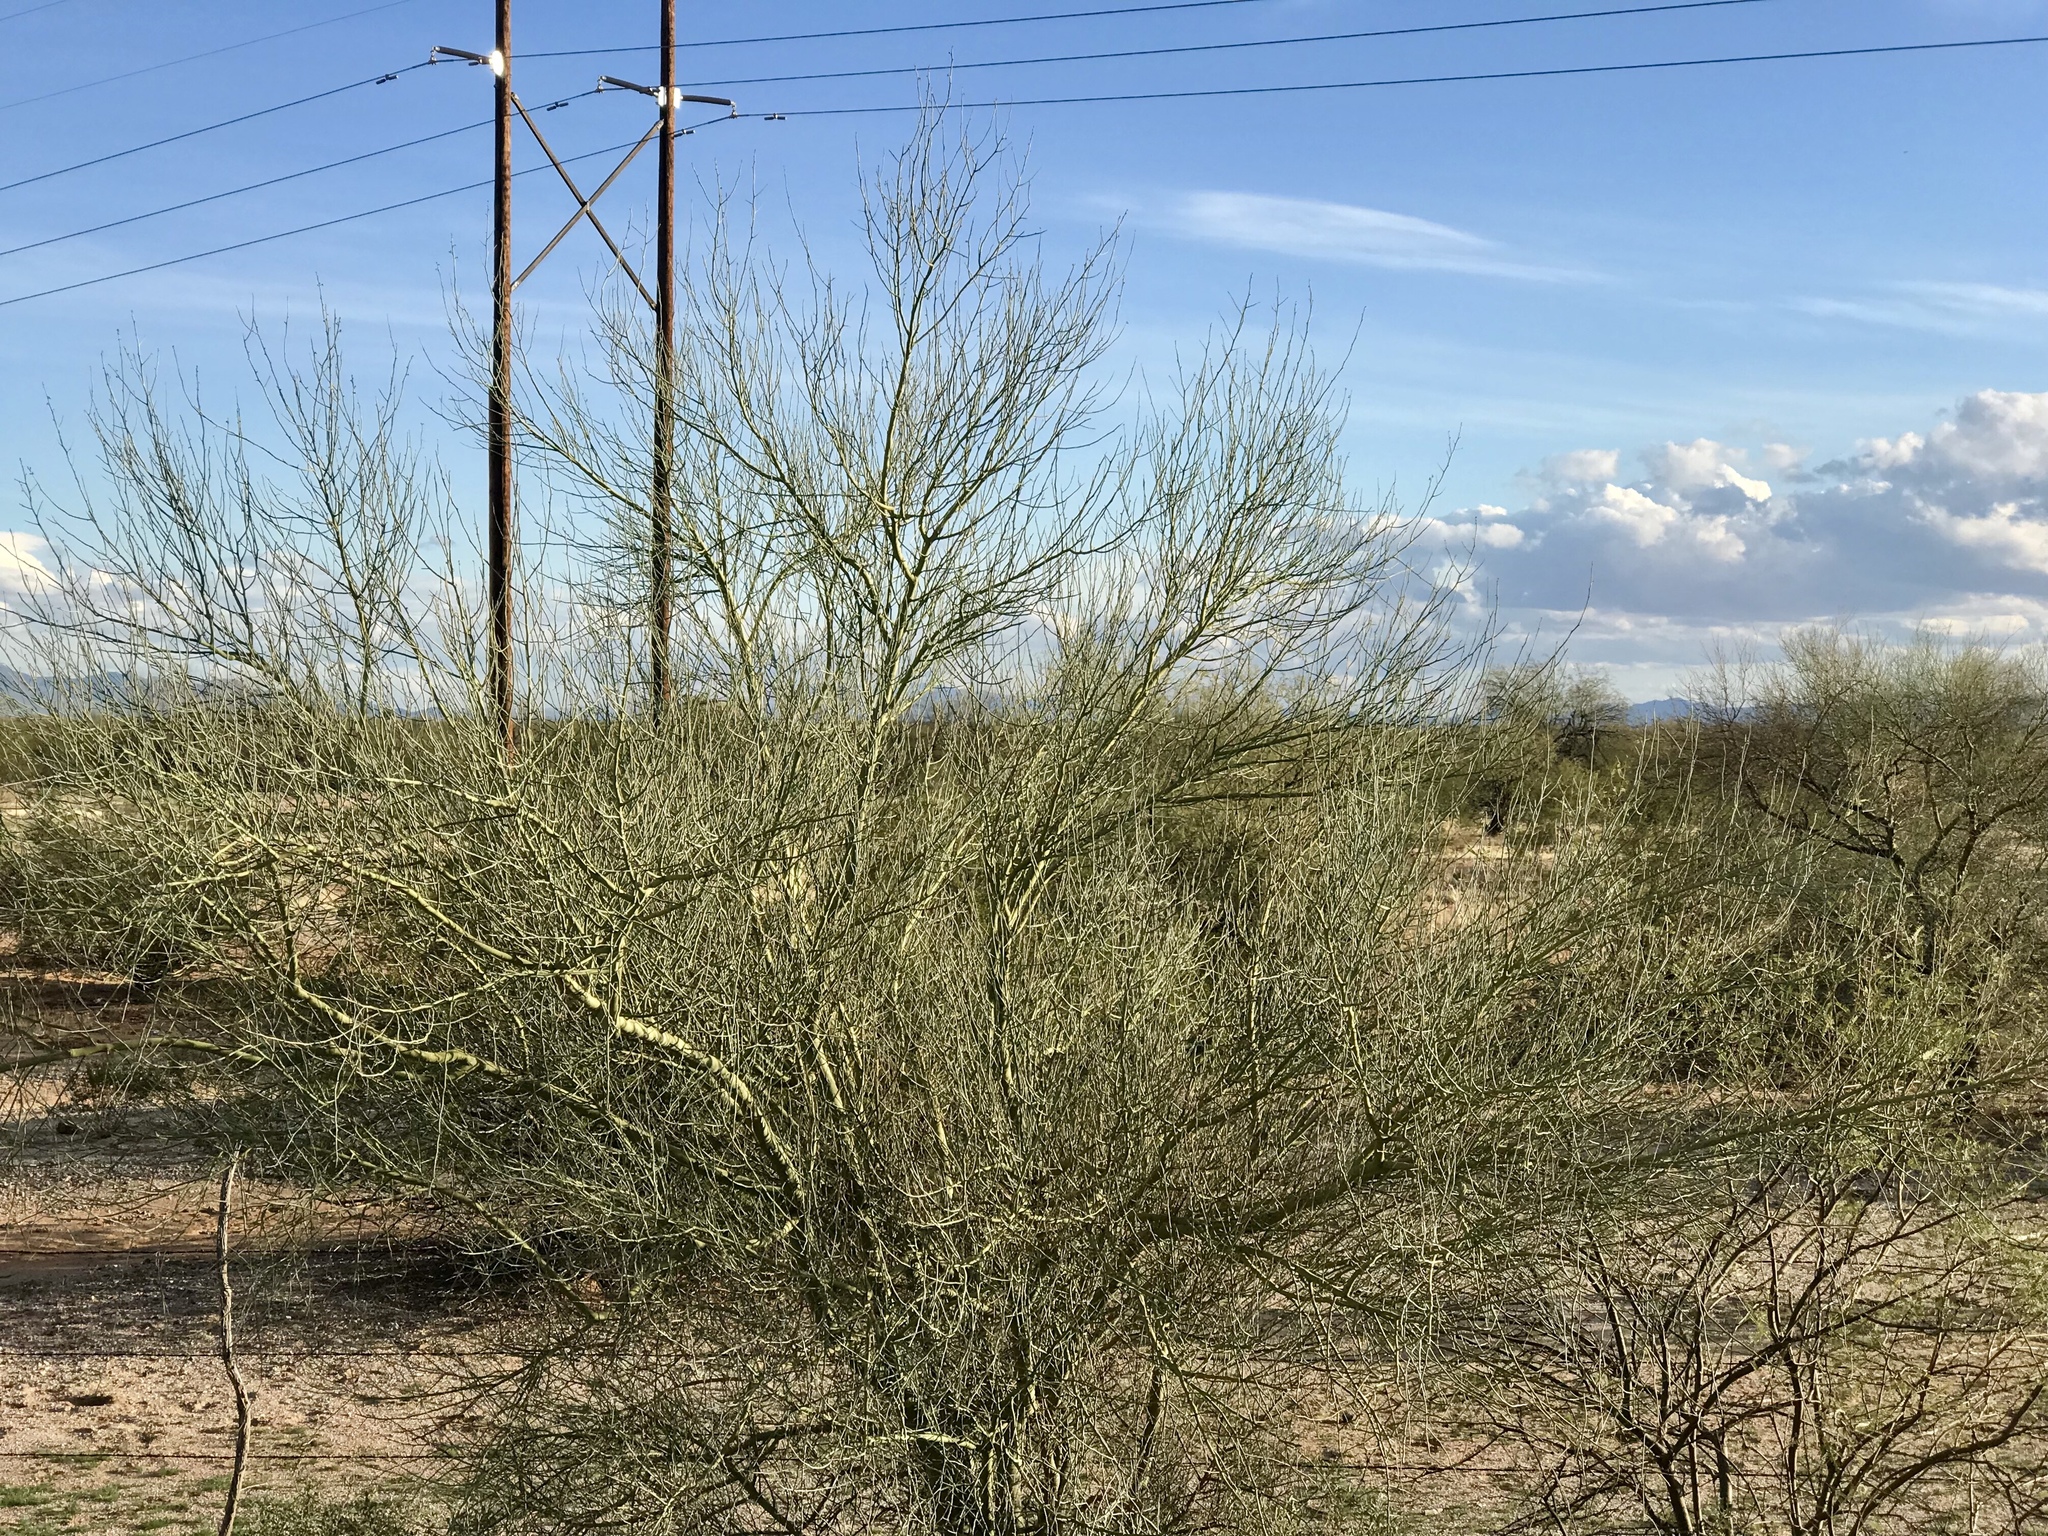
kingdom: Plantae
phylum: Tracheophyta
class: Magnoliopsida
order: Fabales
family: Fabaceae
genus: Parkinsonia
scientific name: Parkinsonia florida
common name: Blue paloverde
